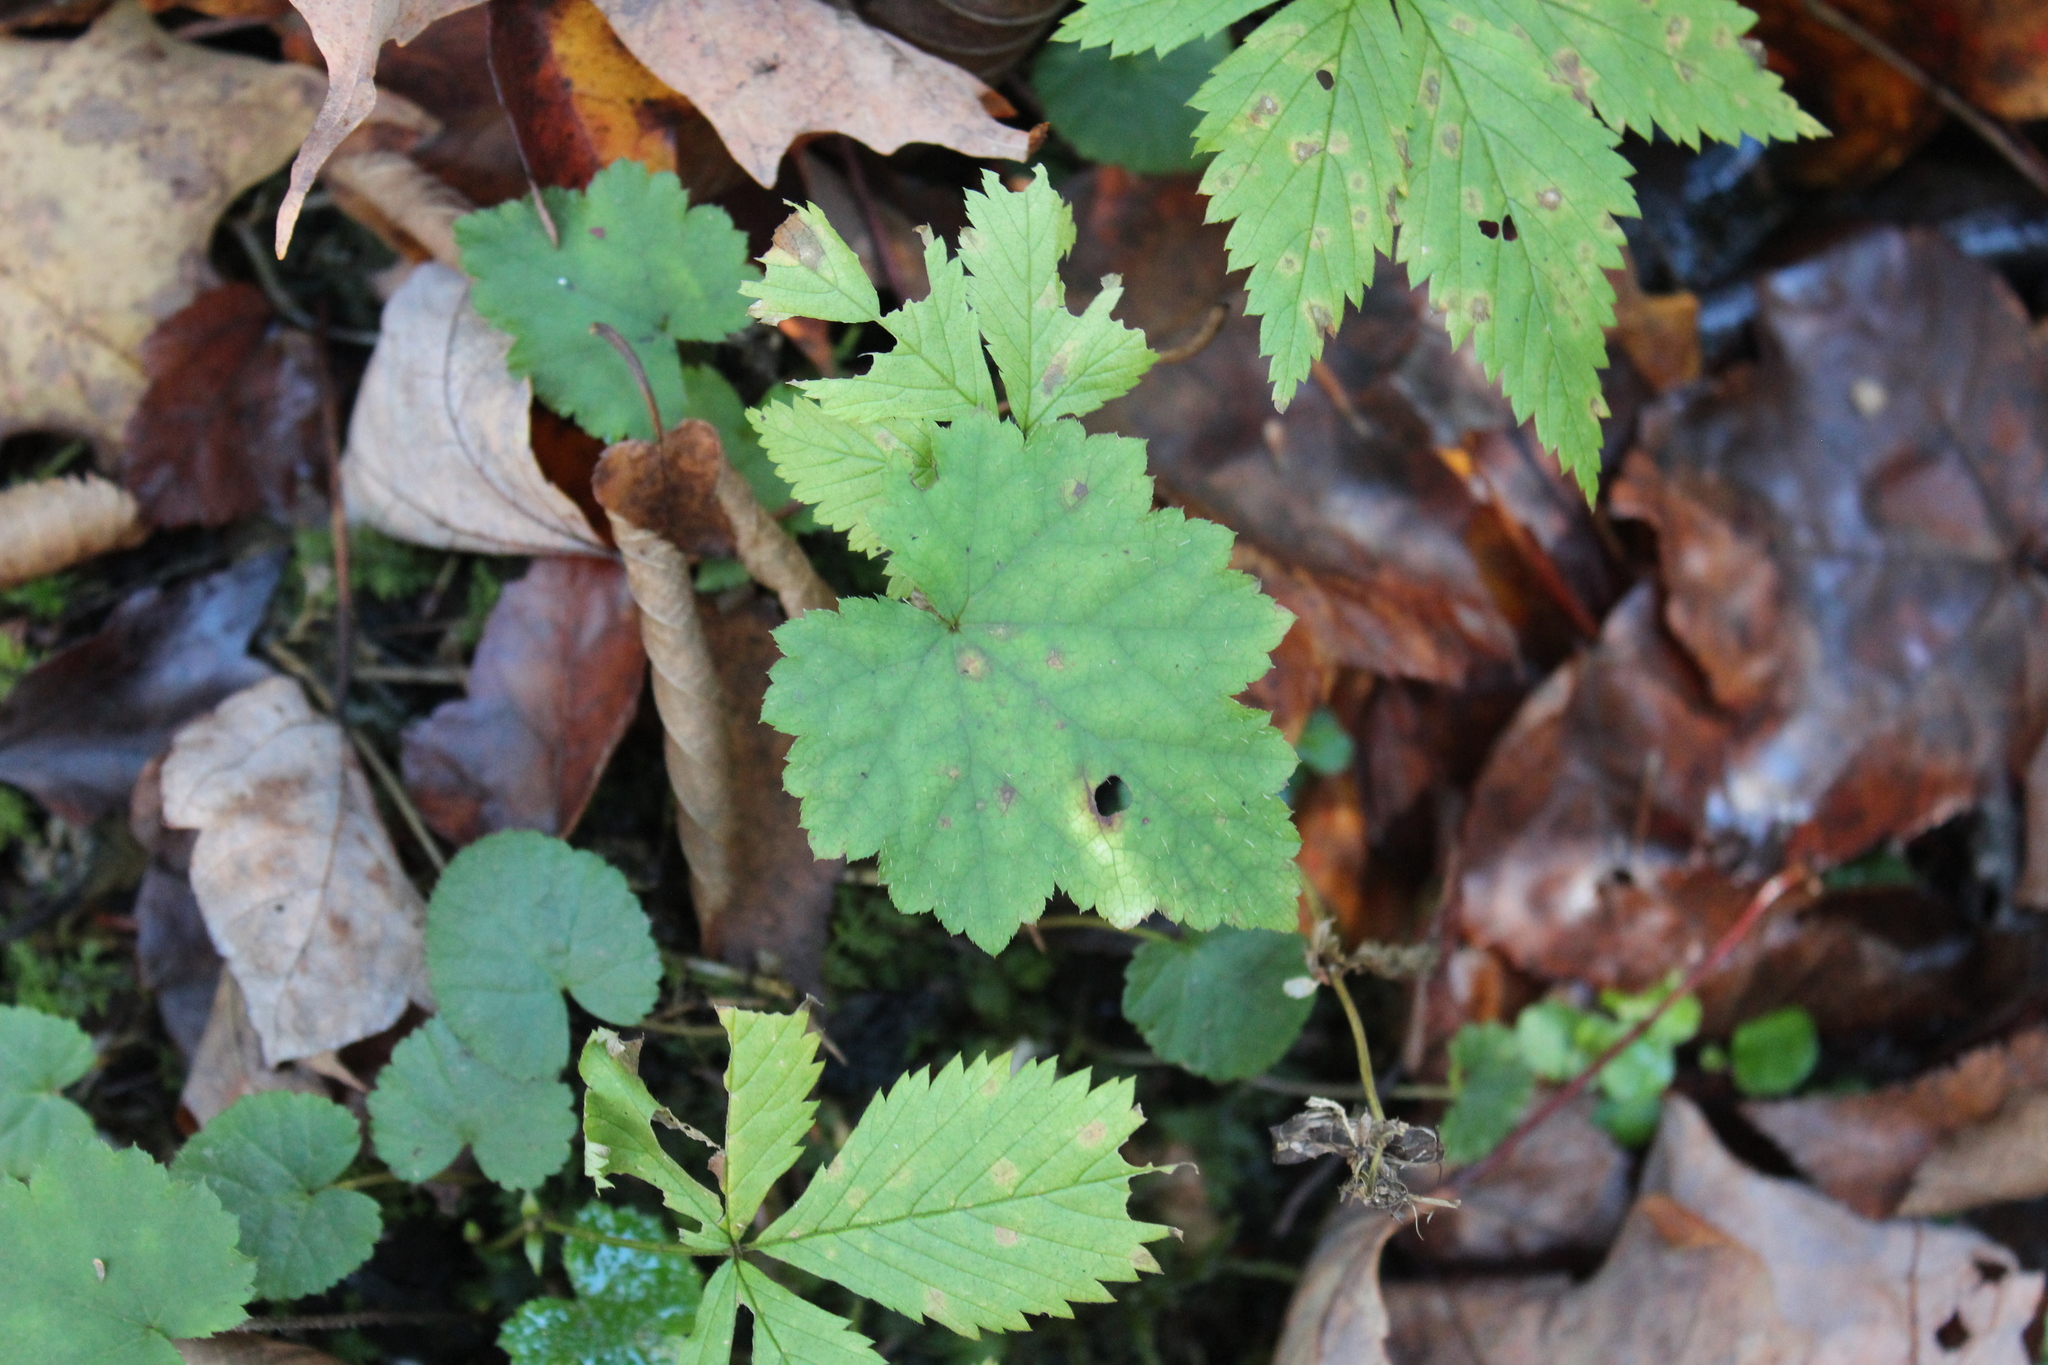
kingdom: Plantae
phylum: Tracheophyta
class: Magnoliopsida
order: Saxifragales
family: Saxifragaceae
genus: Tiarella
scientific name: Tiarella stolonifera
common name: Stoloniferous foamflower
